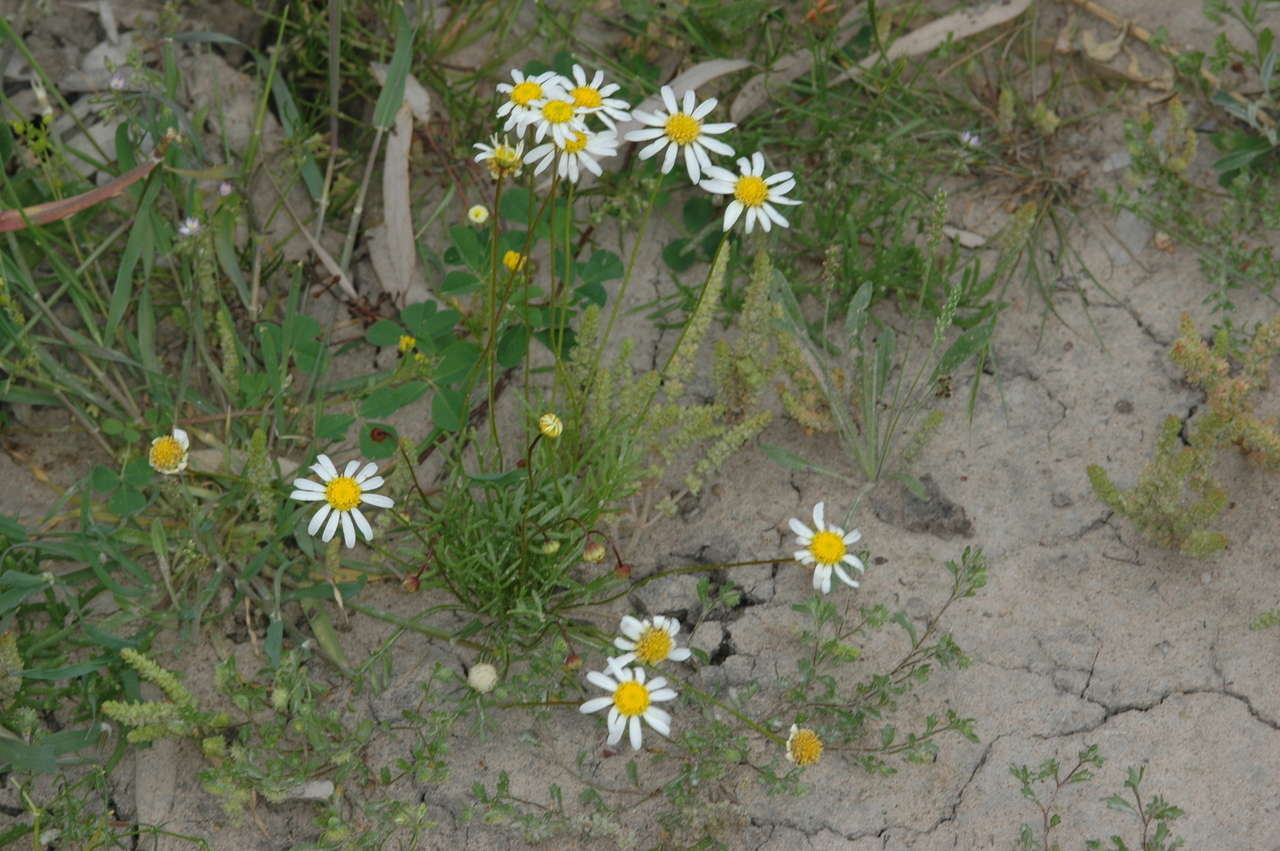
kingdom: Plantae
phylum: Tracheophyta
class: Magnoliopsida
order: Asterales
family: Asteraceae
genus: Brachyscome
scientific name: Brachyscome lineariloba
